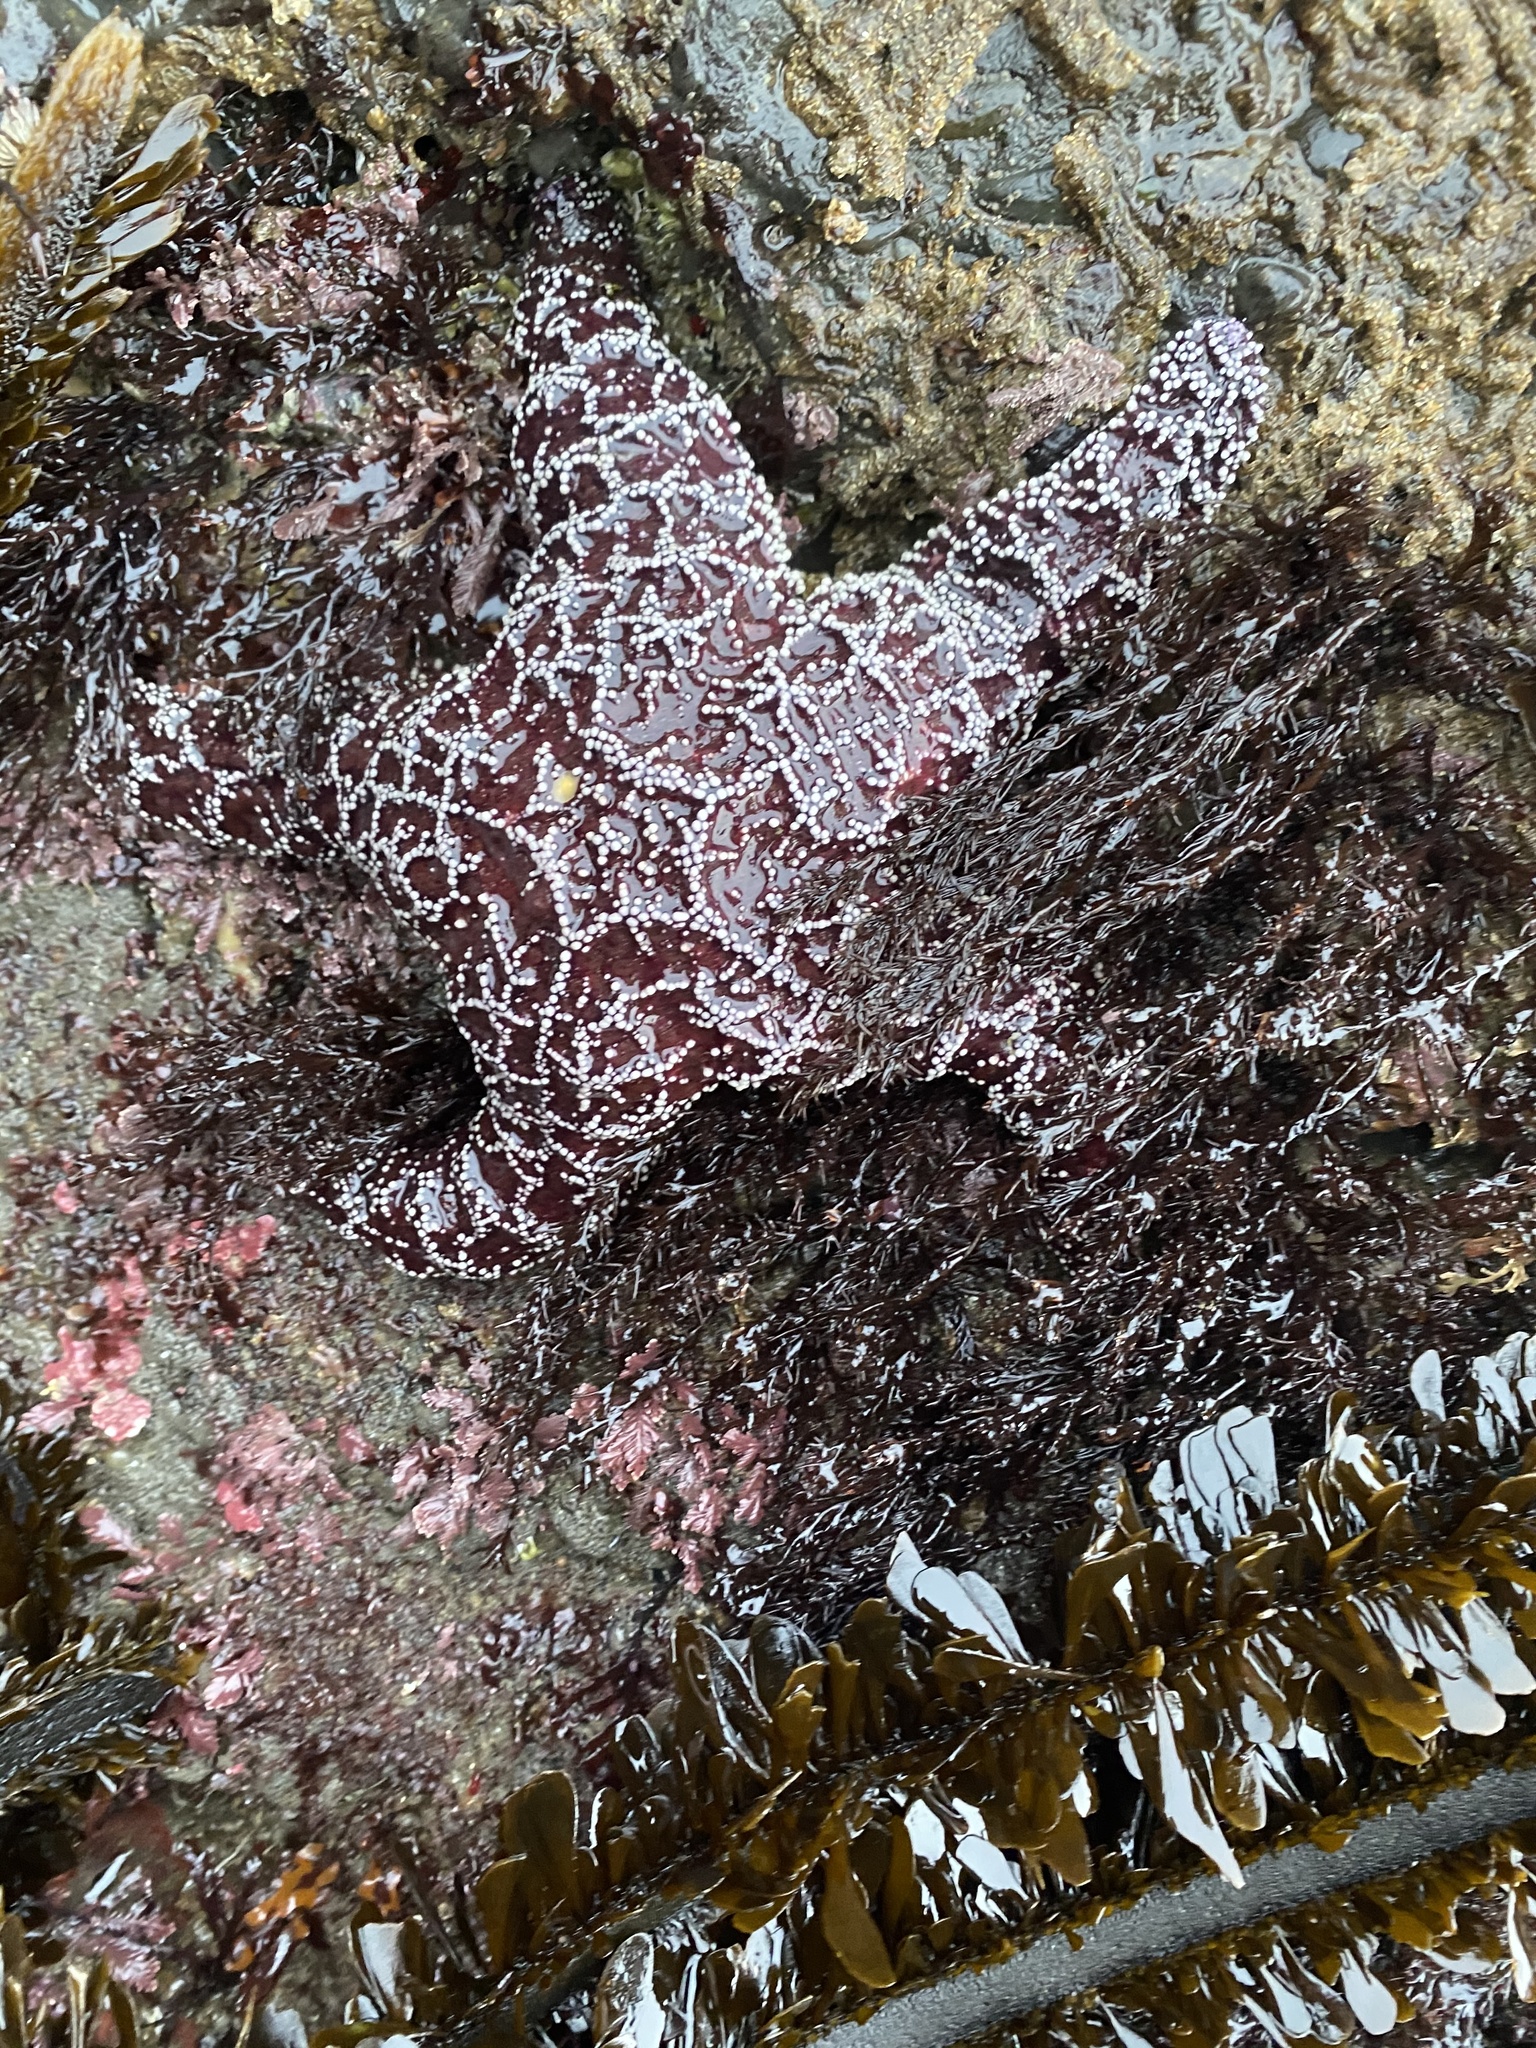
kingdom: Animalia
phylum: Echinodermata
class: Asteroidea
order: Forcipulatida
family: Asteriidae
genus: Pisaster
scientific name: Pisaster ochraceus
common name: Ochre stars
